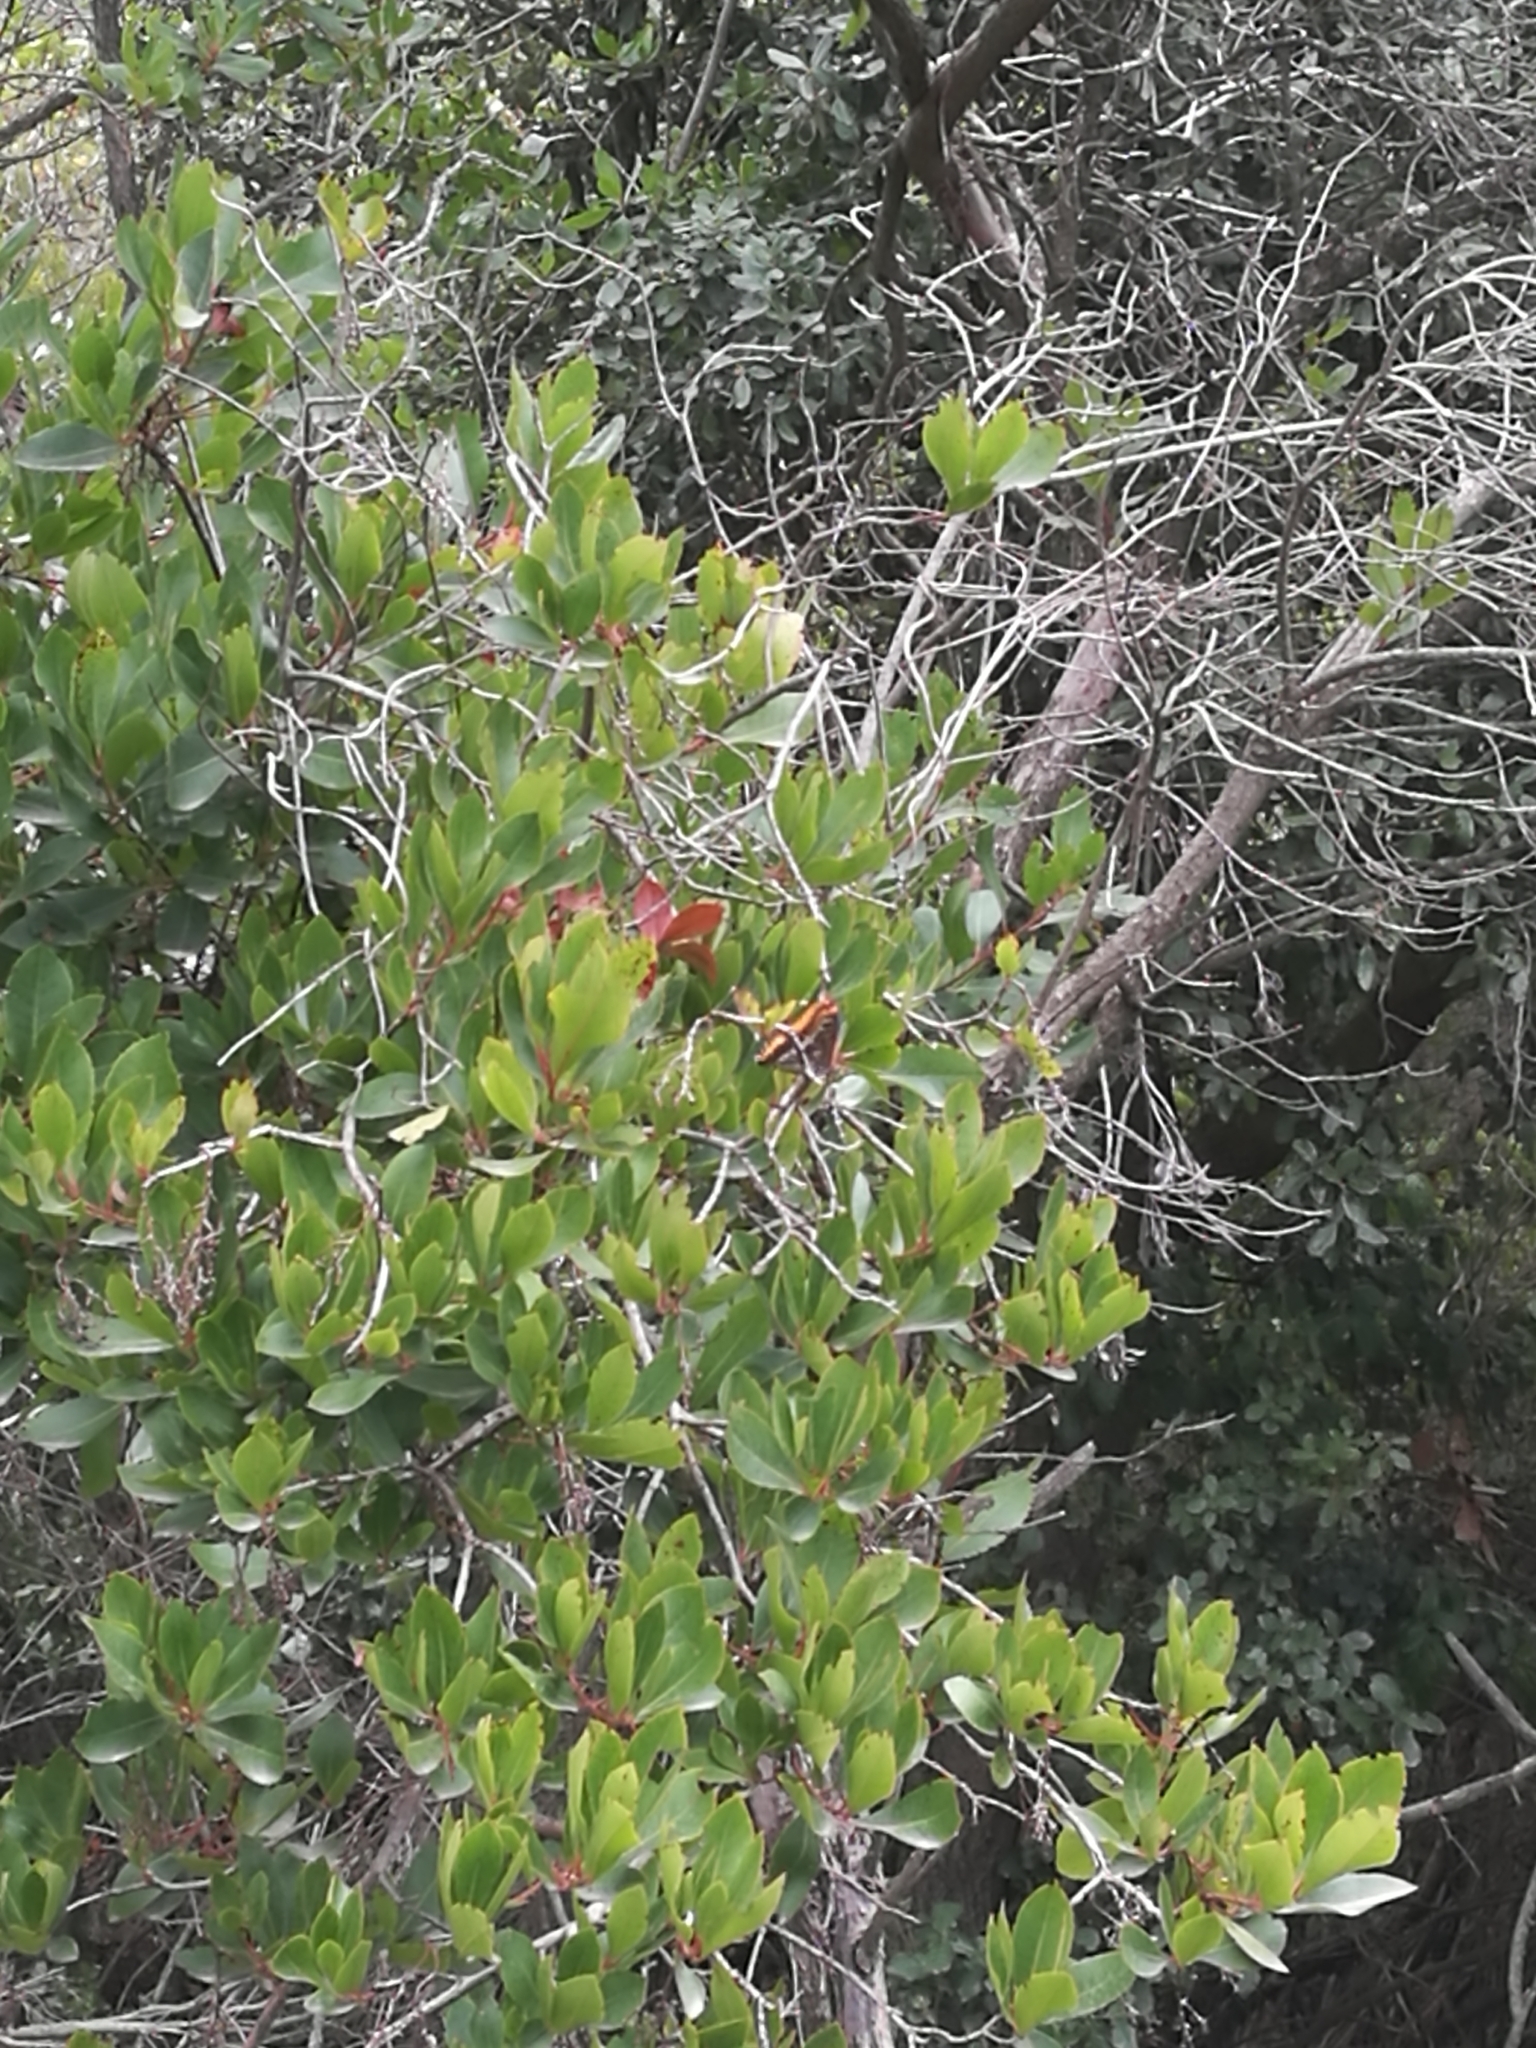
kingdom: Animalia
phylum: Arthropoda
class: Insecta
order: Lepidoptera
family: Nymphalidae
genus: Charaxes
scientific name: Charaxes jasius
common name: Two tailed pasha
